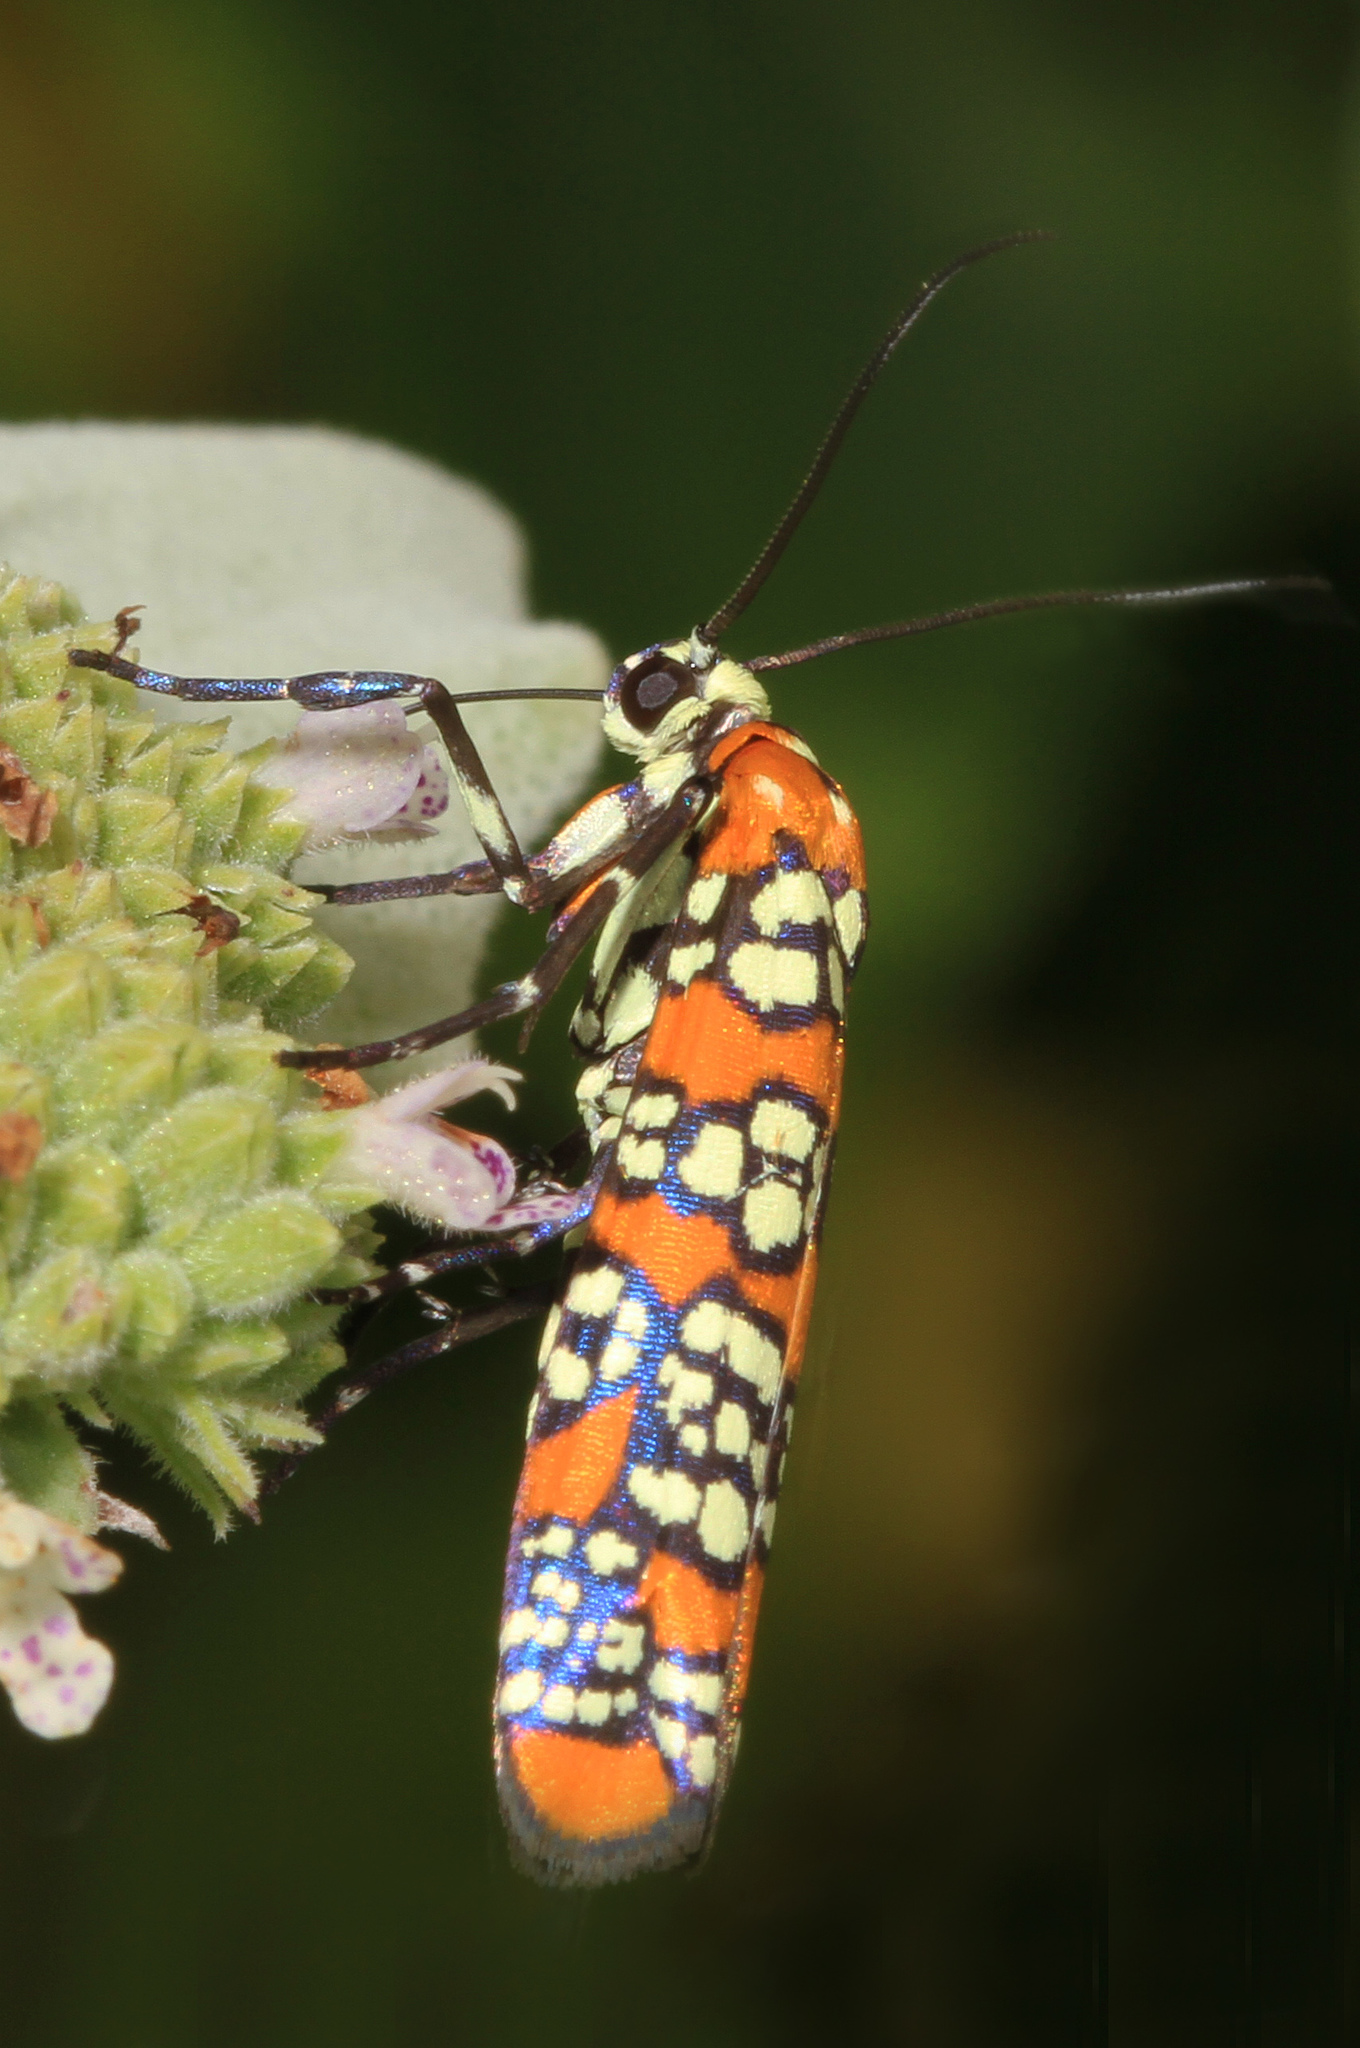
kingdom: Animalia
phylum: Arthropoda
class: Insecta
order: Lepidoptera
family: Attevidae
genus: Atteva
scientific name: Atteva punctella
